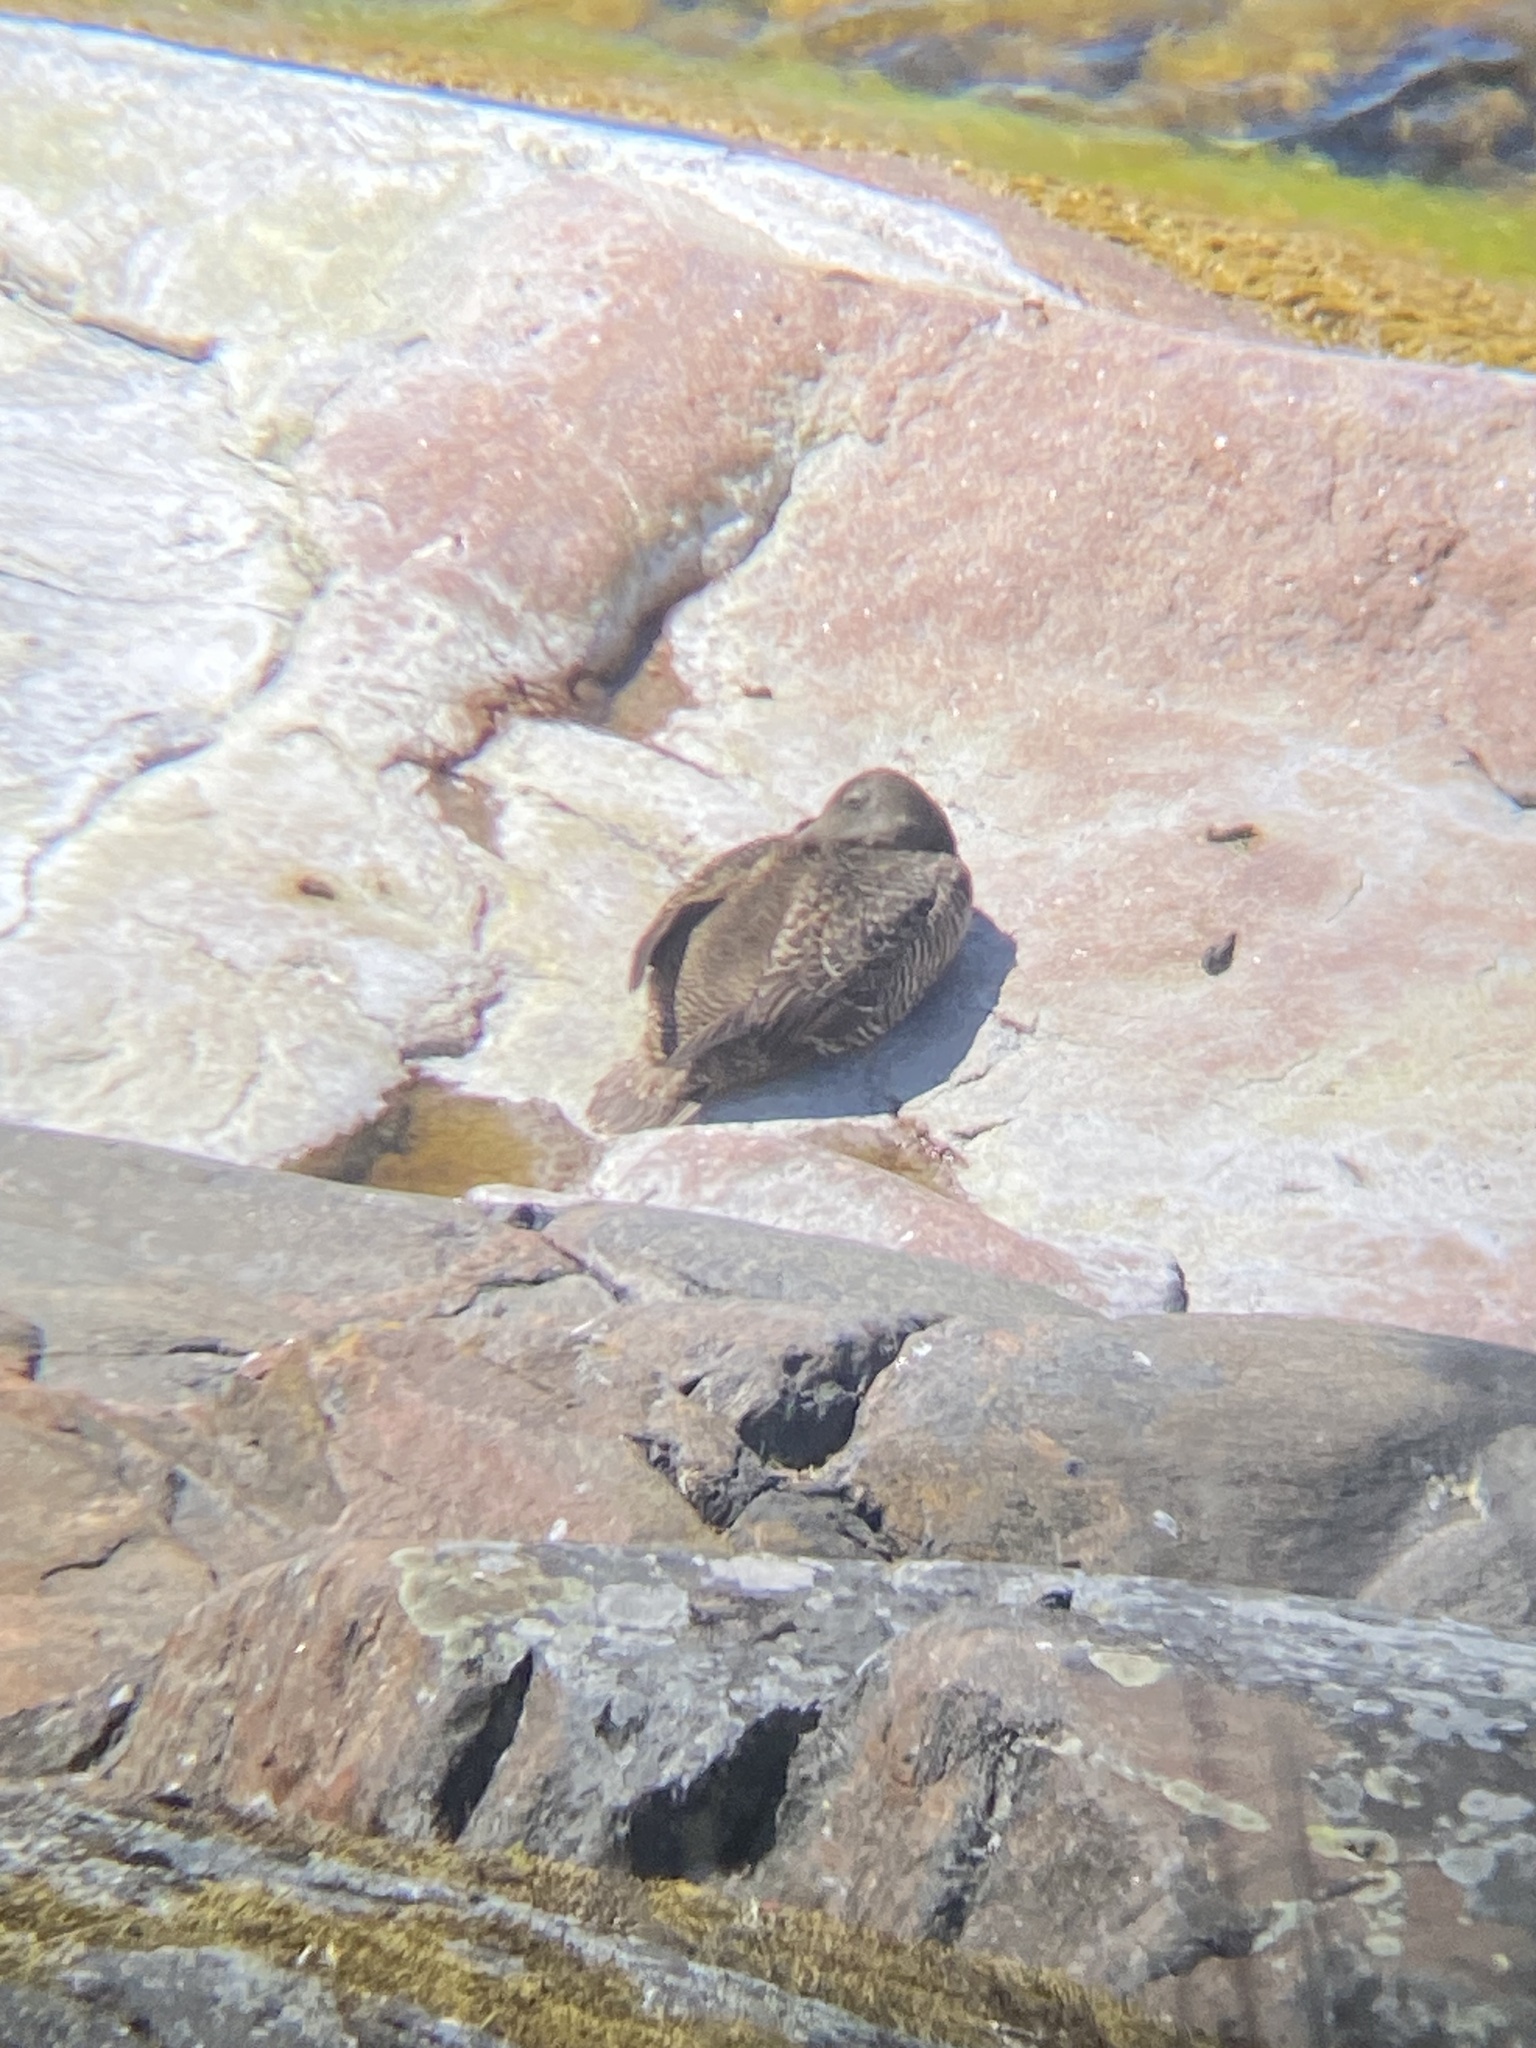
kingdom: Animalia
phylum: Chordata
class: Aves
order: Anseriformes
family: Anatidae
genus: Somateria
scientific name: Somateria mollissima
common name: Common eider
